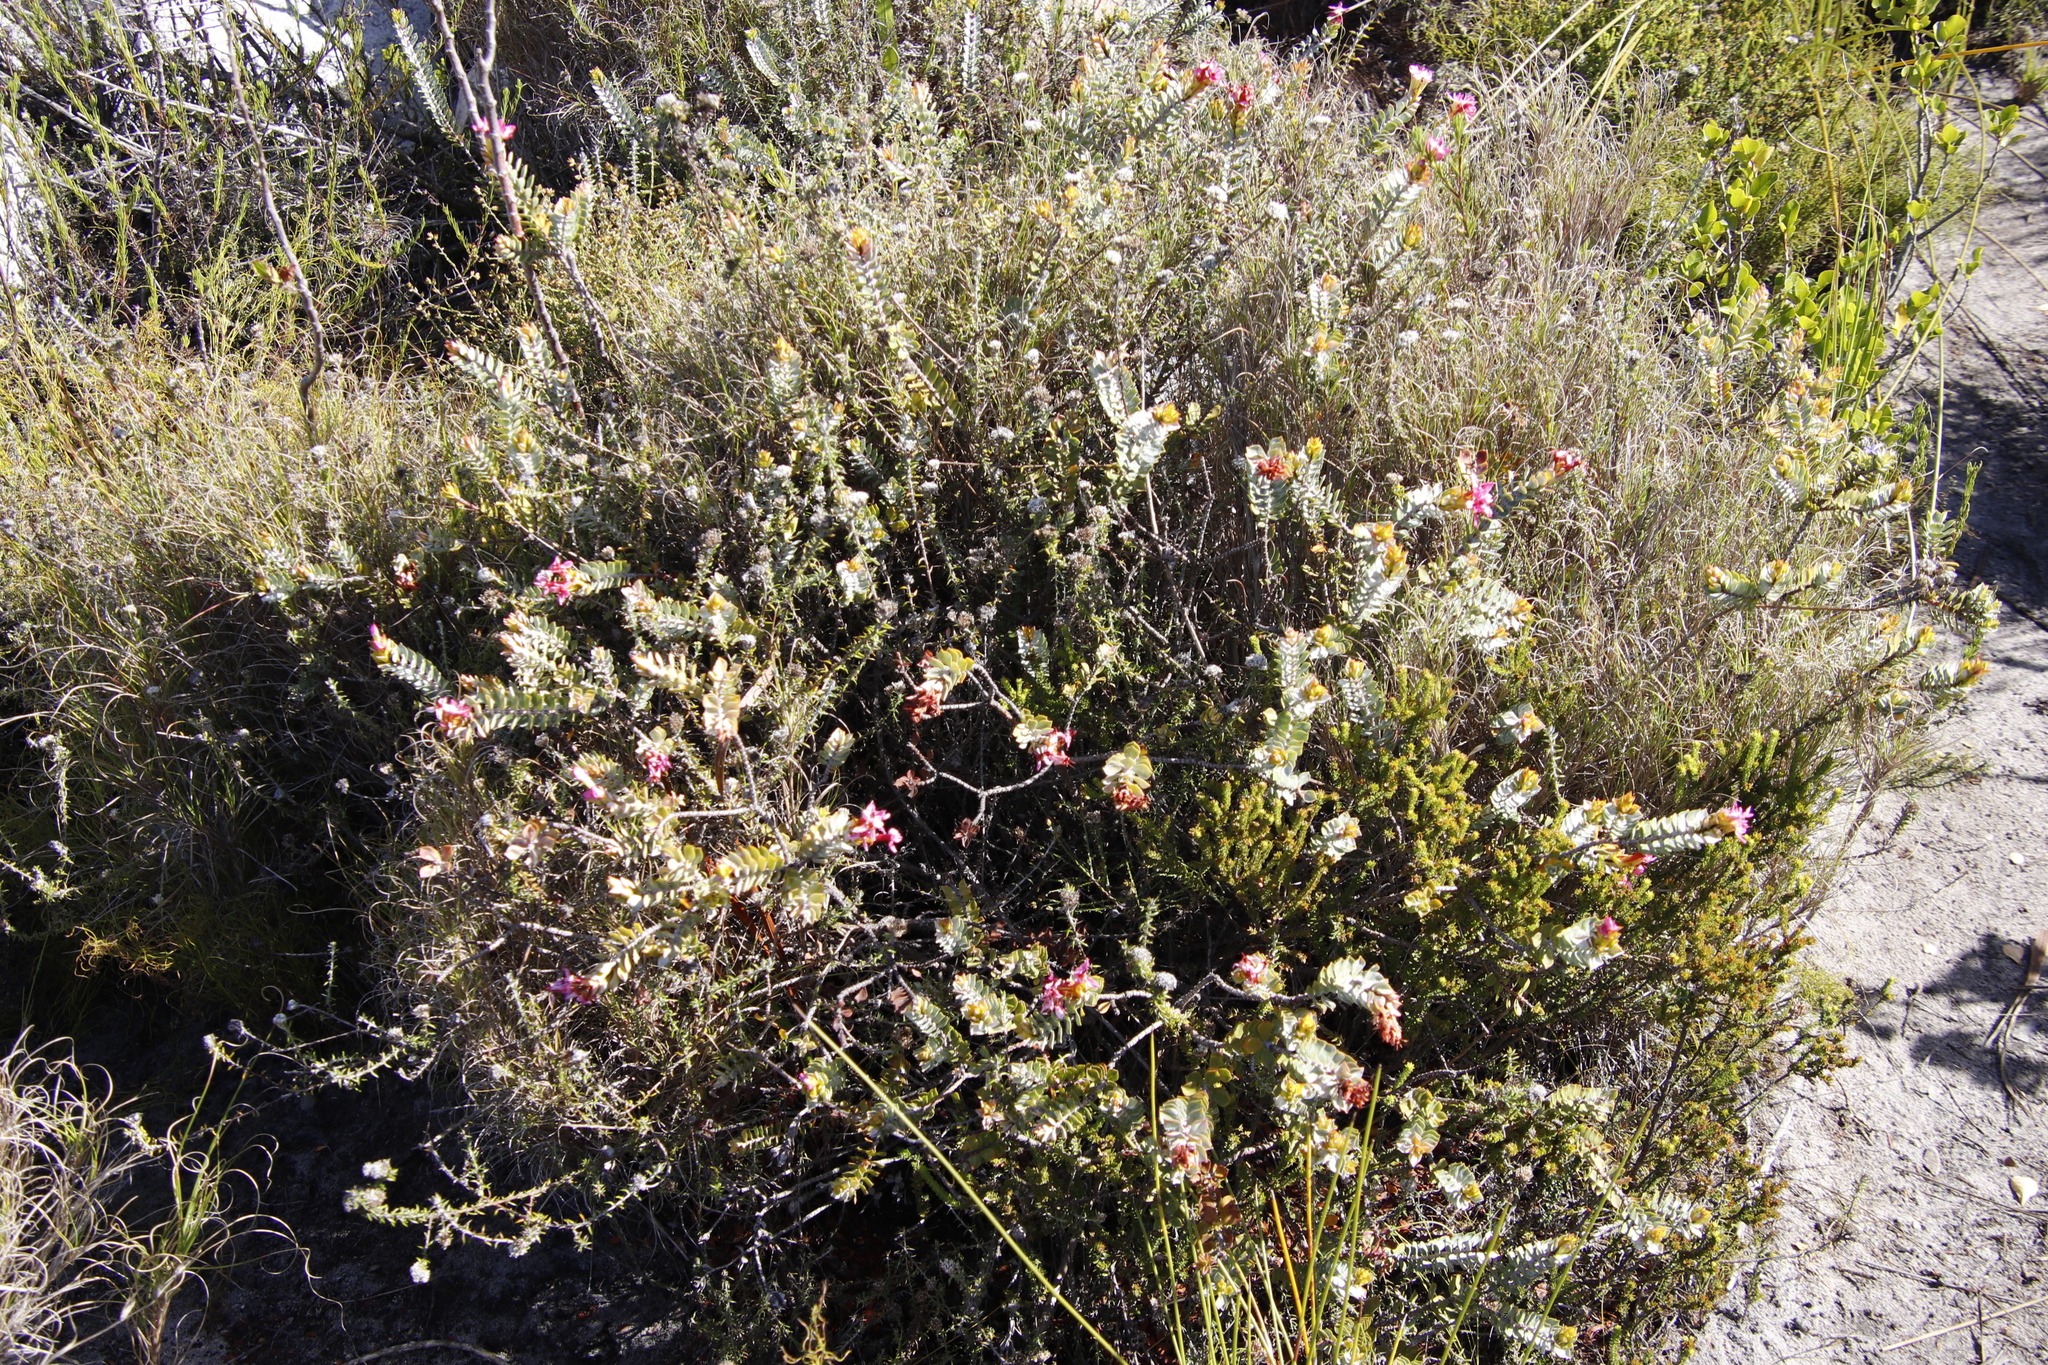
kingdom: Plantae
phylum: Tracheophyta
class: Magnoliopsida
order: Myrtales
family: Penaeaceae
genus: Saltera
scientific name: Saltera sarcocolla
